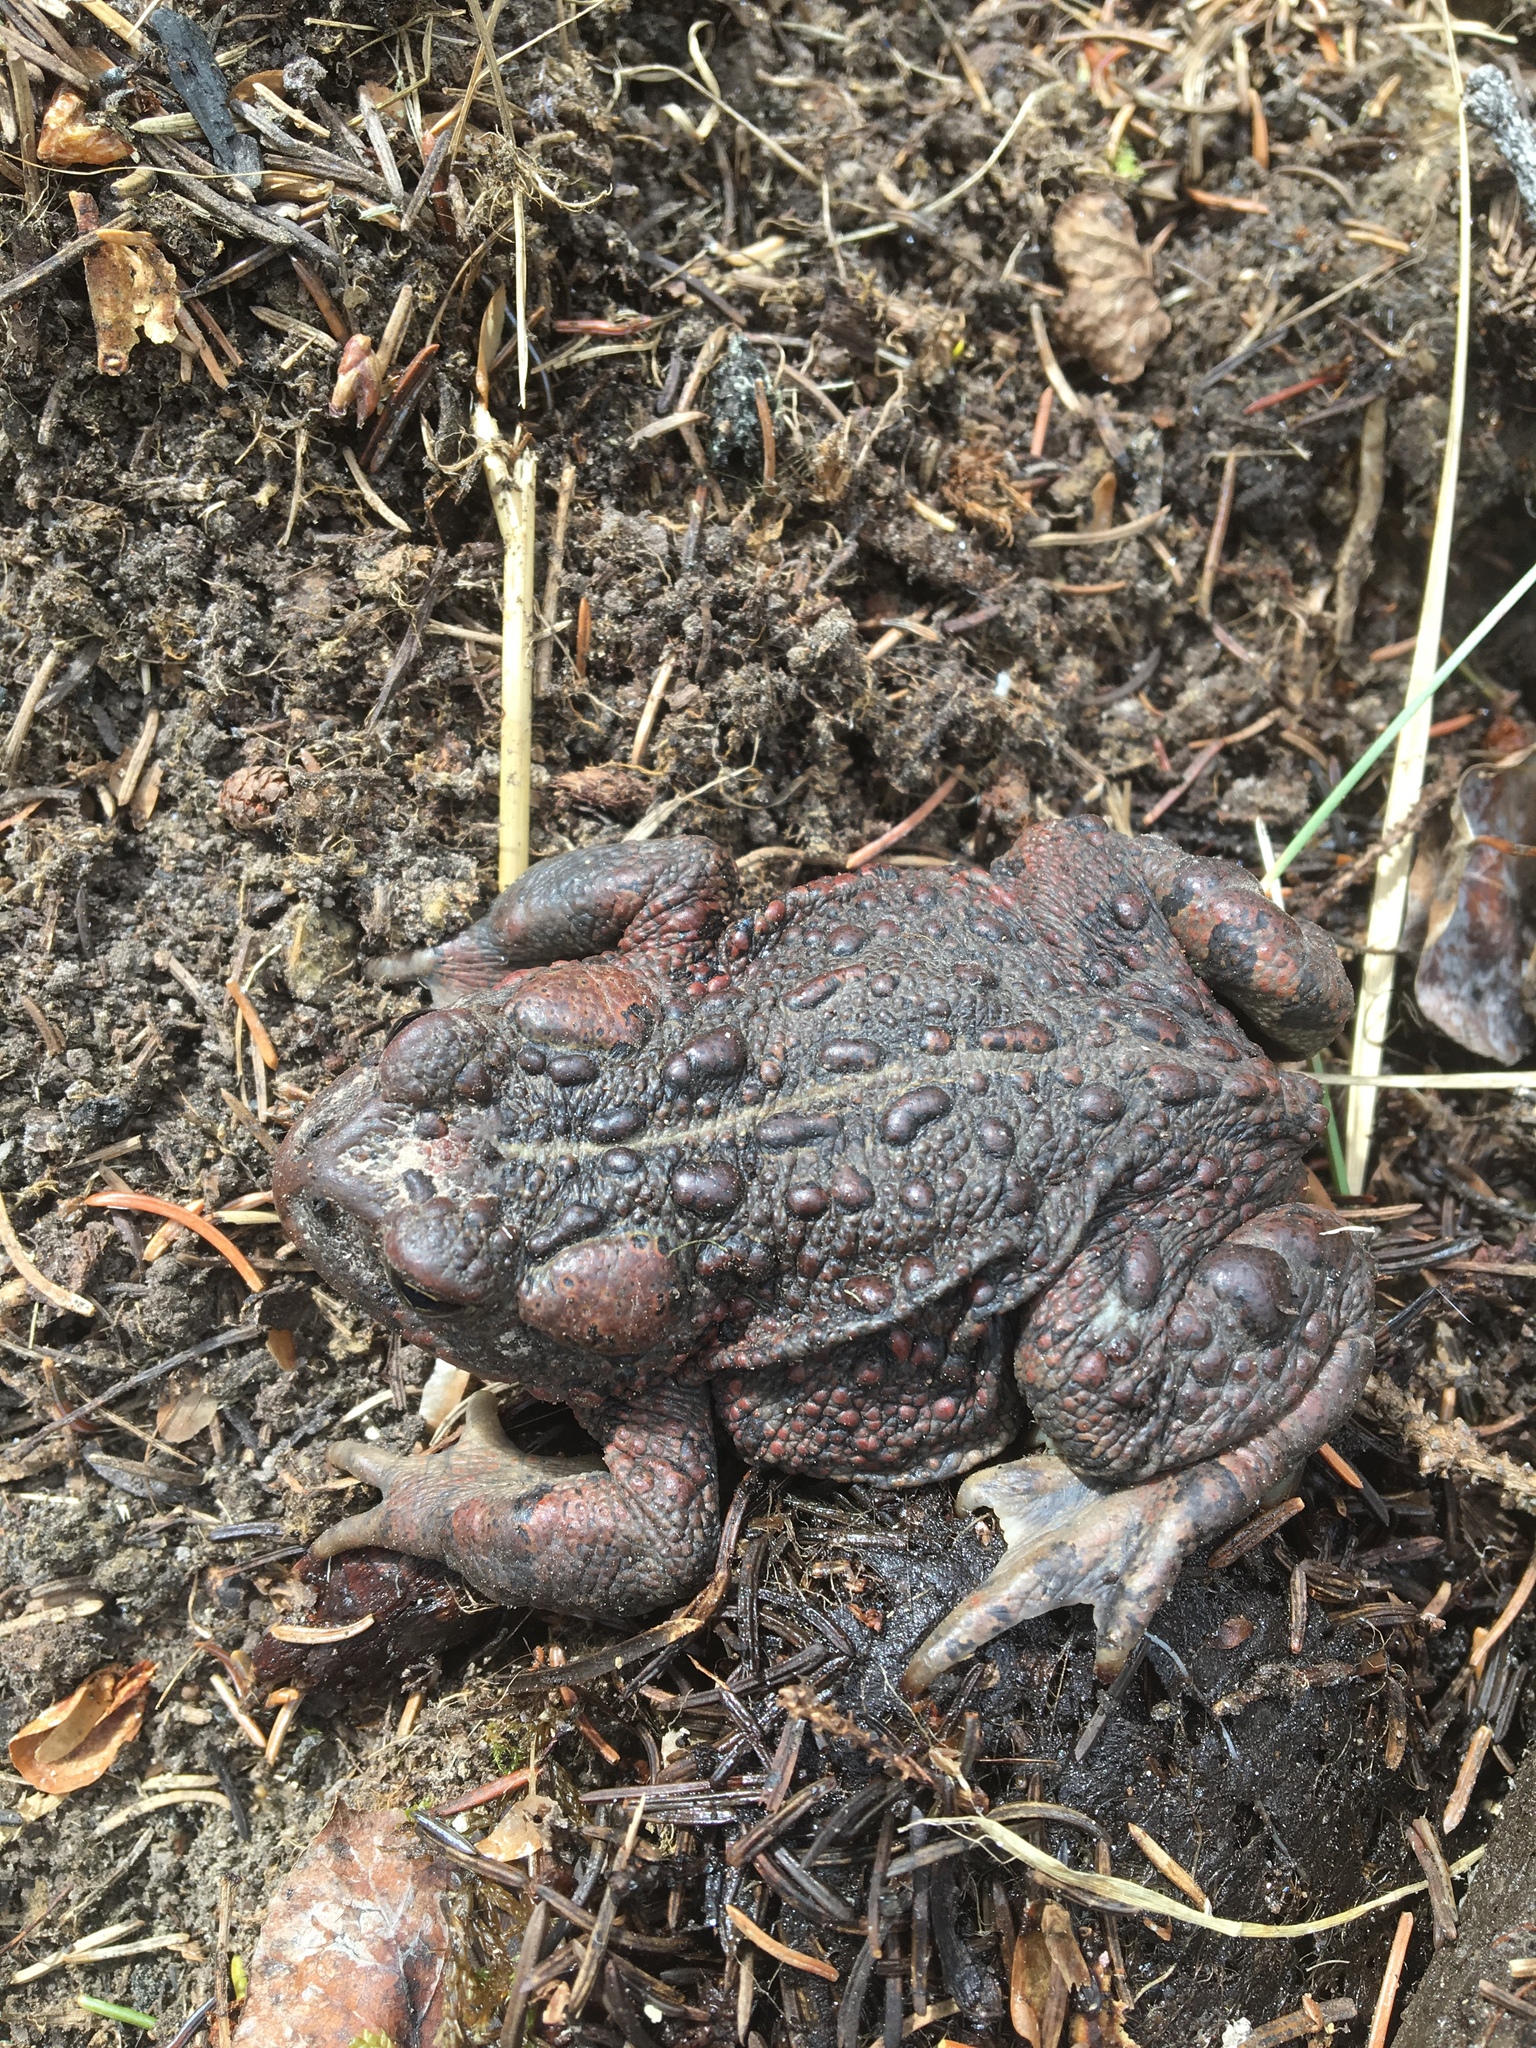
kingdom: Animalia
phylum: Chordata
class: Amphibia
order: Anura
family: Bufonidae
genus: Anaxyrus
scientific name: Anaxyrus boreas
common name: Western toad
